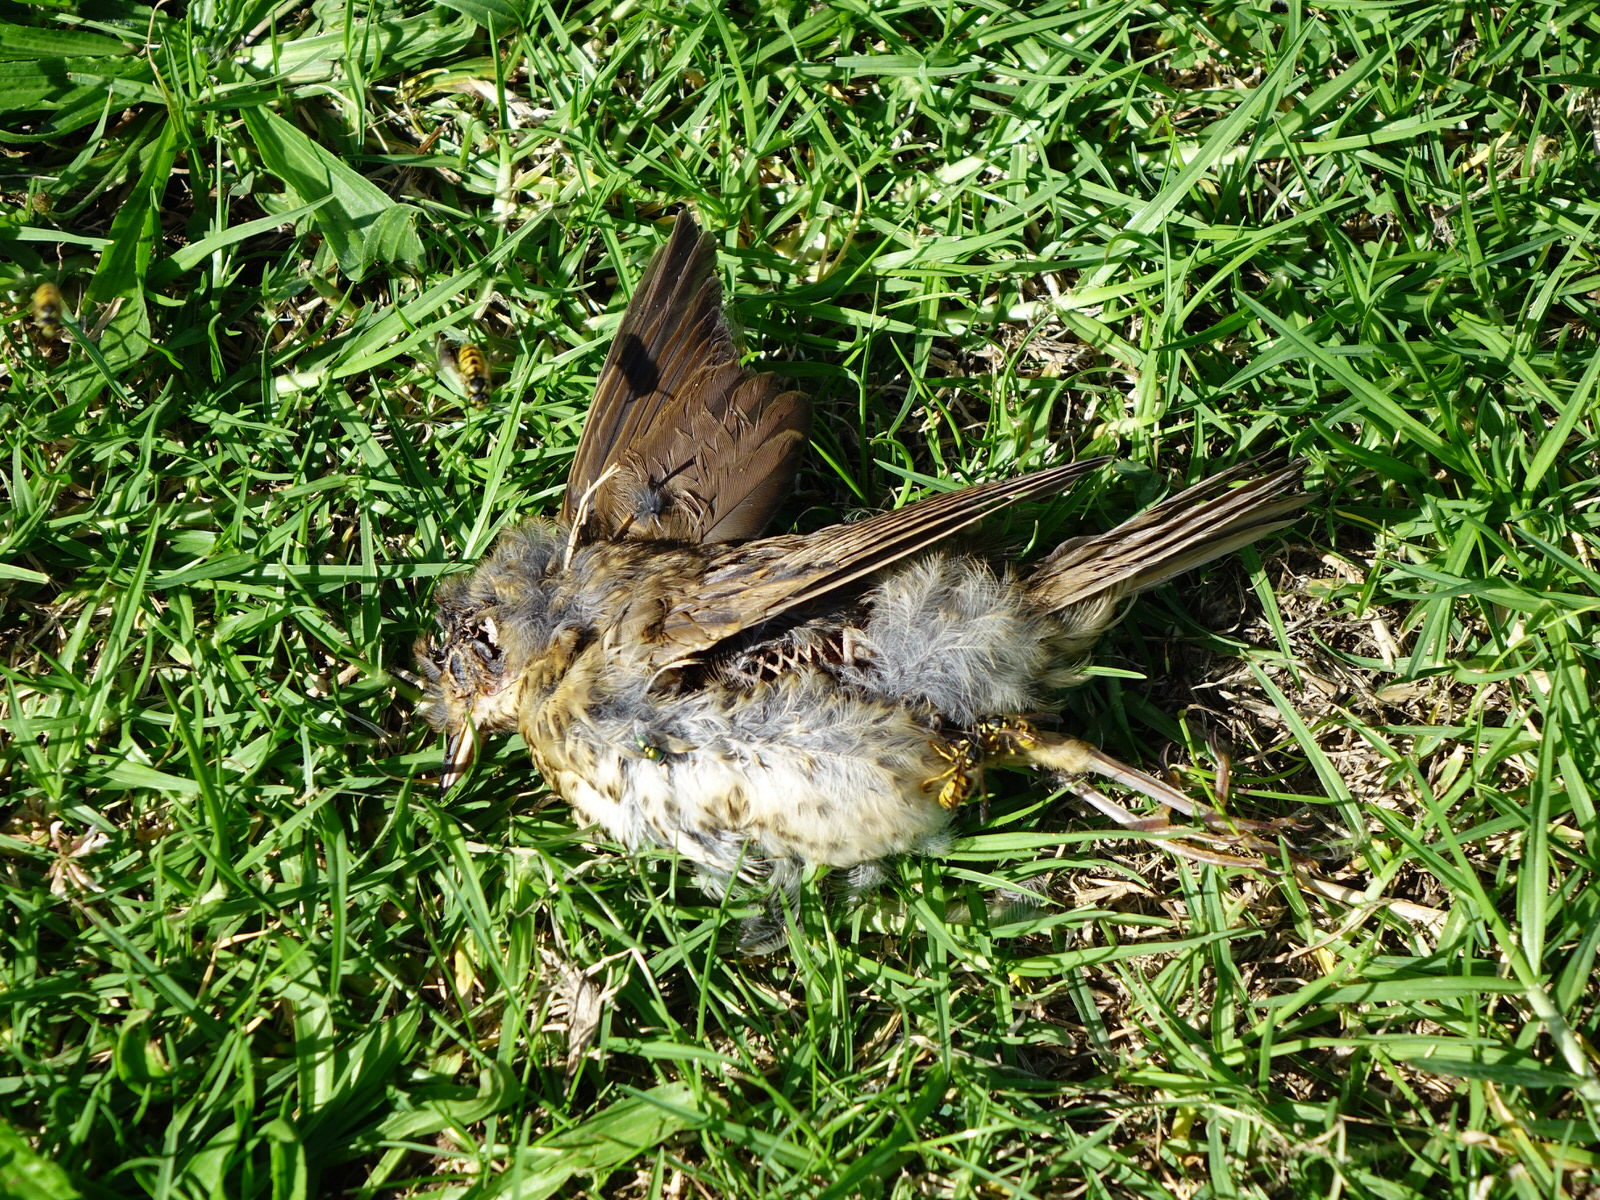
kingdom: Animalia
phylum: Chordata
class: Aves
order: Passeriformes
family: Turdidae
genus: Turdus
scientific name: Turdus philomelos
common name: Song thrush
